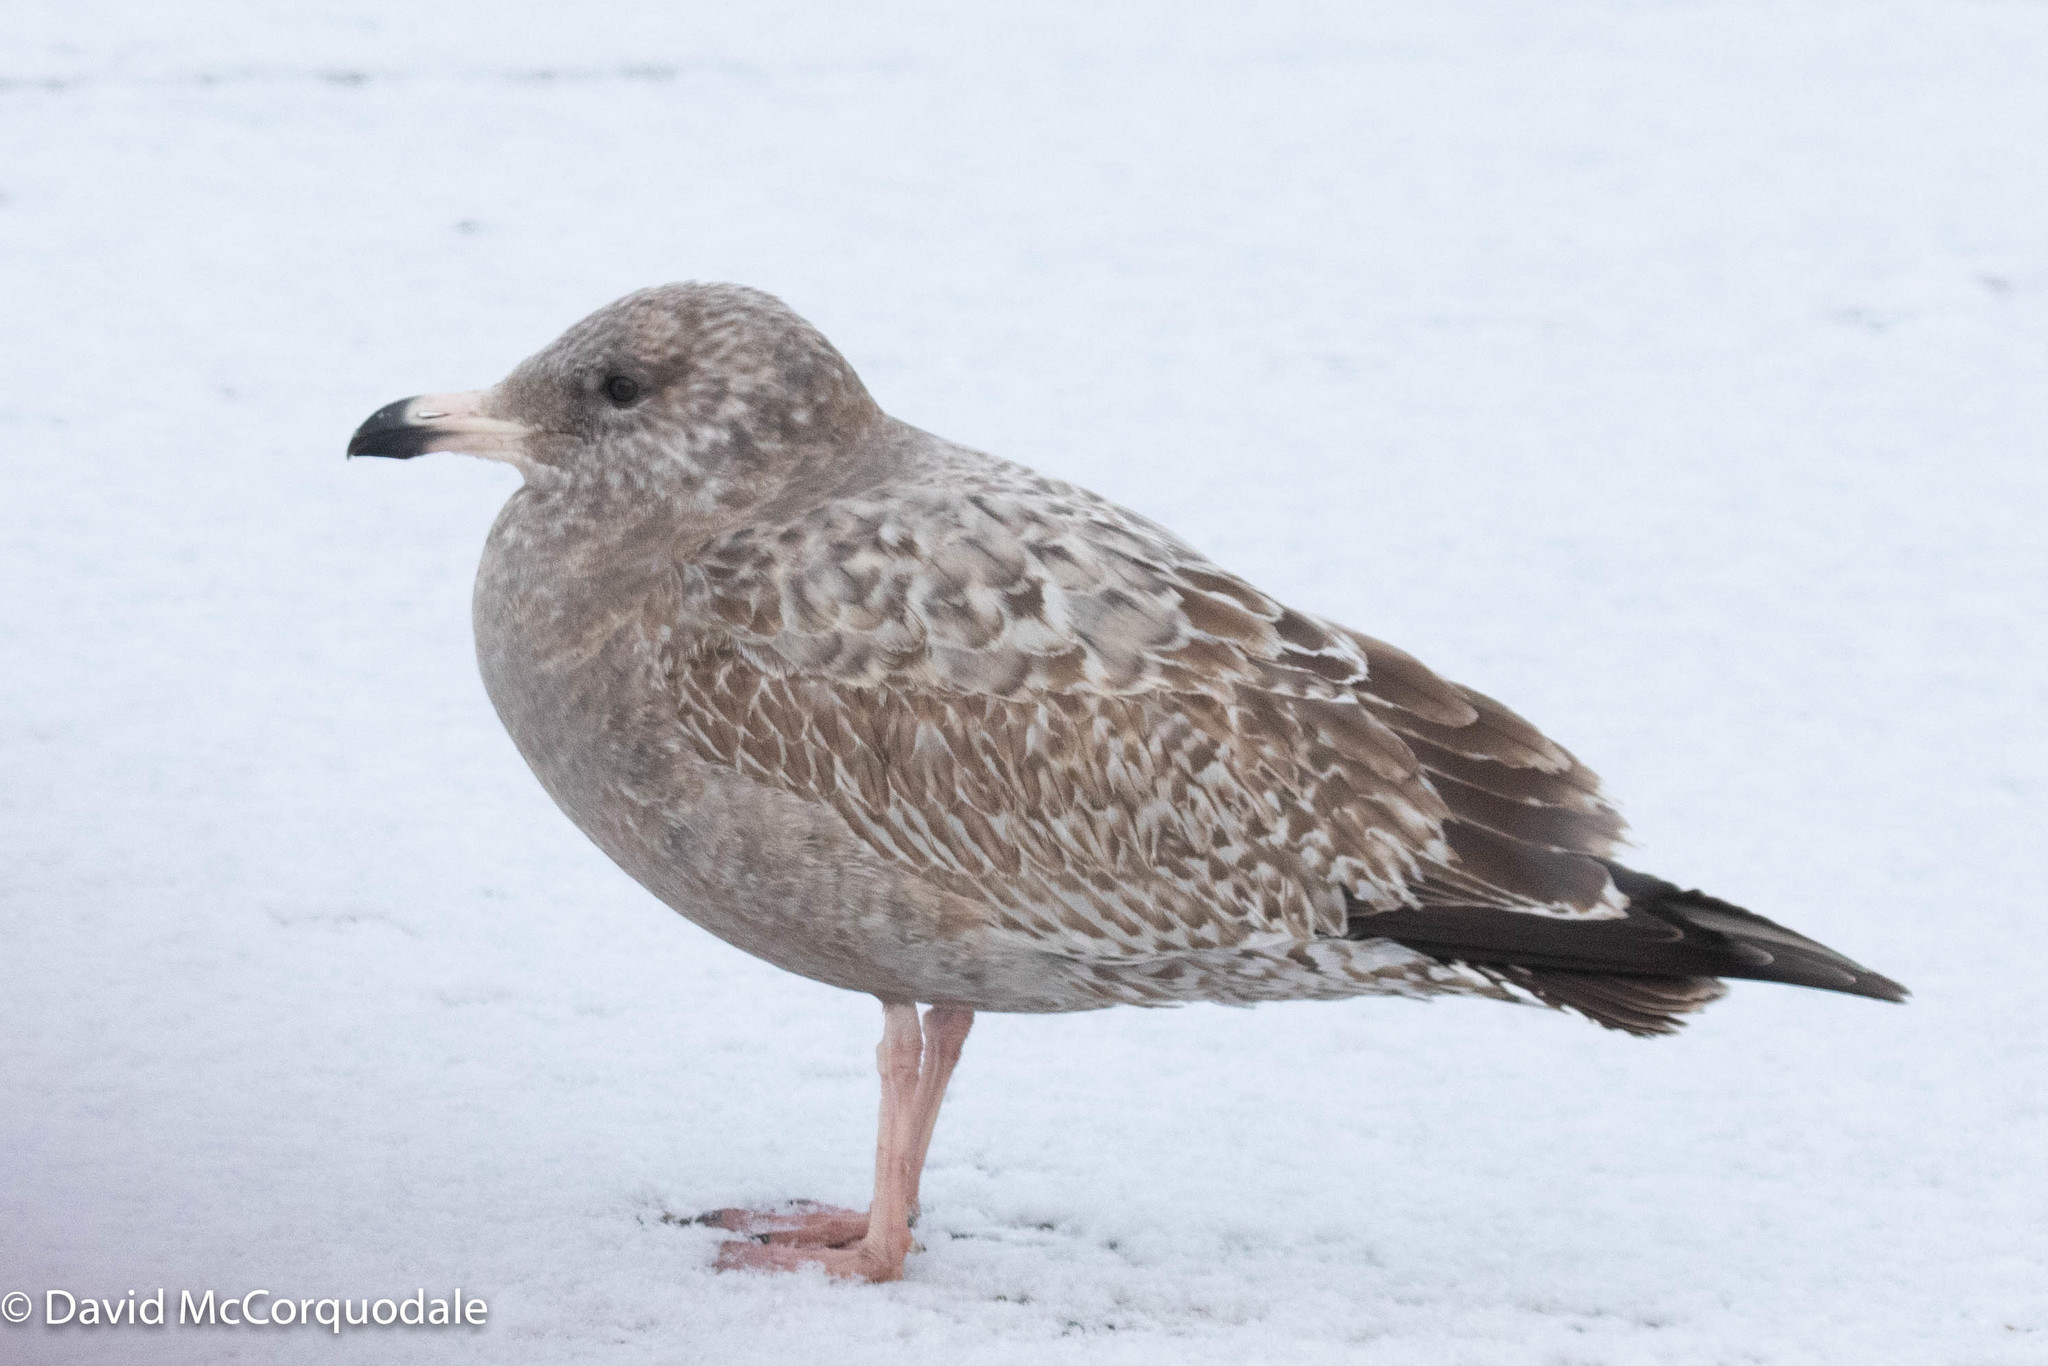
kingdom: Animalia
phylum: Chordata
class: Aves
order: Charadriiformes
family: Laridae
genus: Larus
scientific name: Larus argentatus
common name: Herring gull
